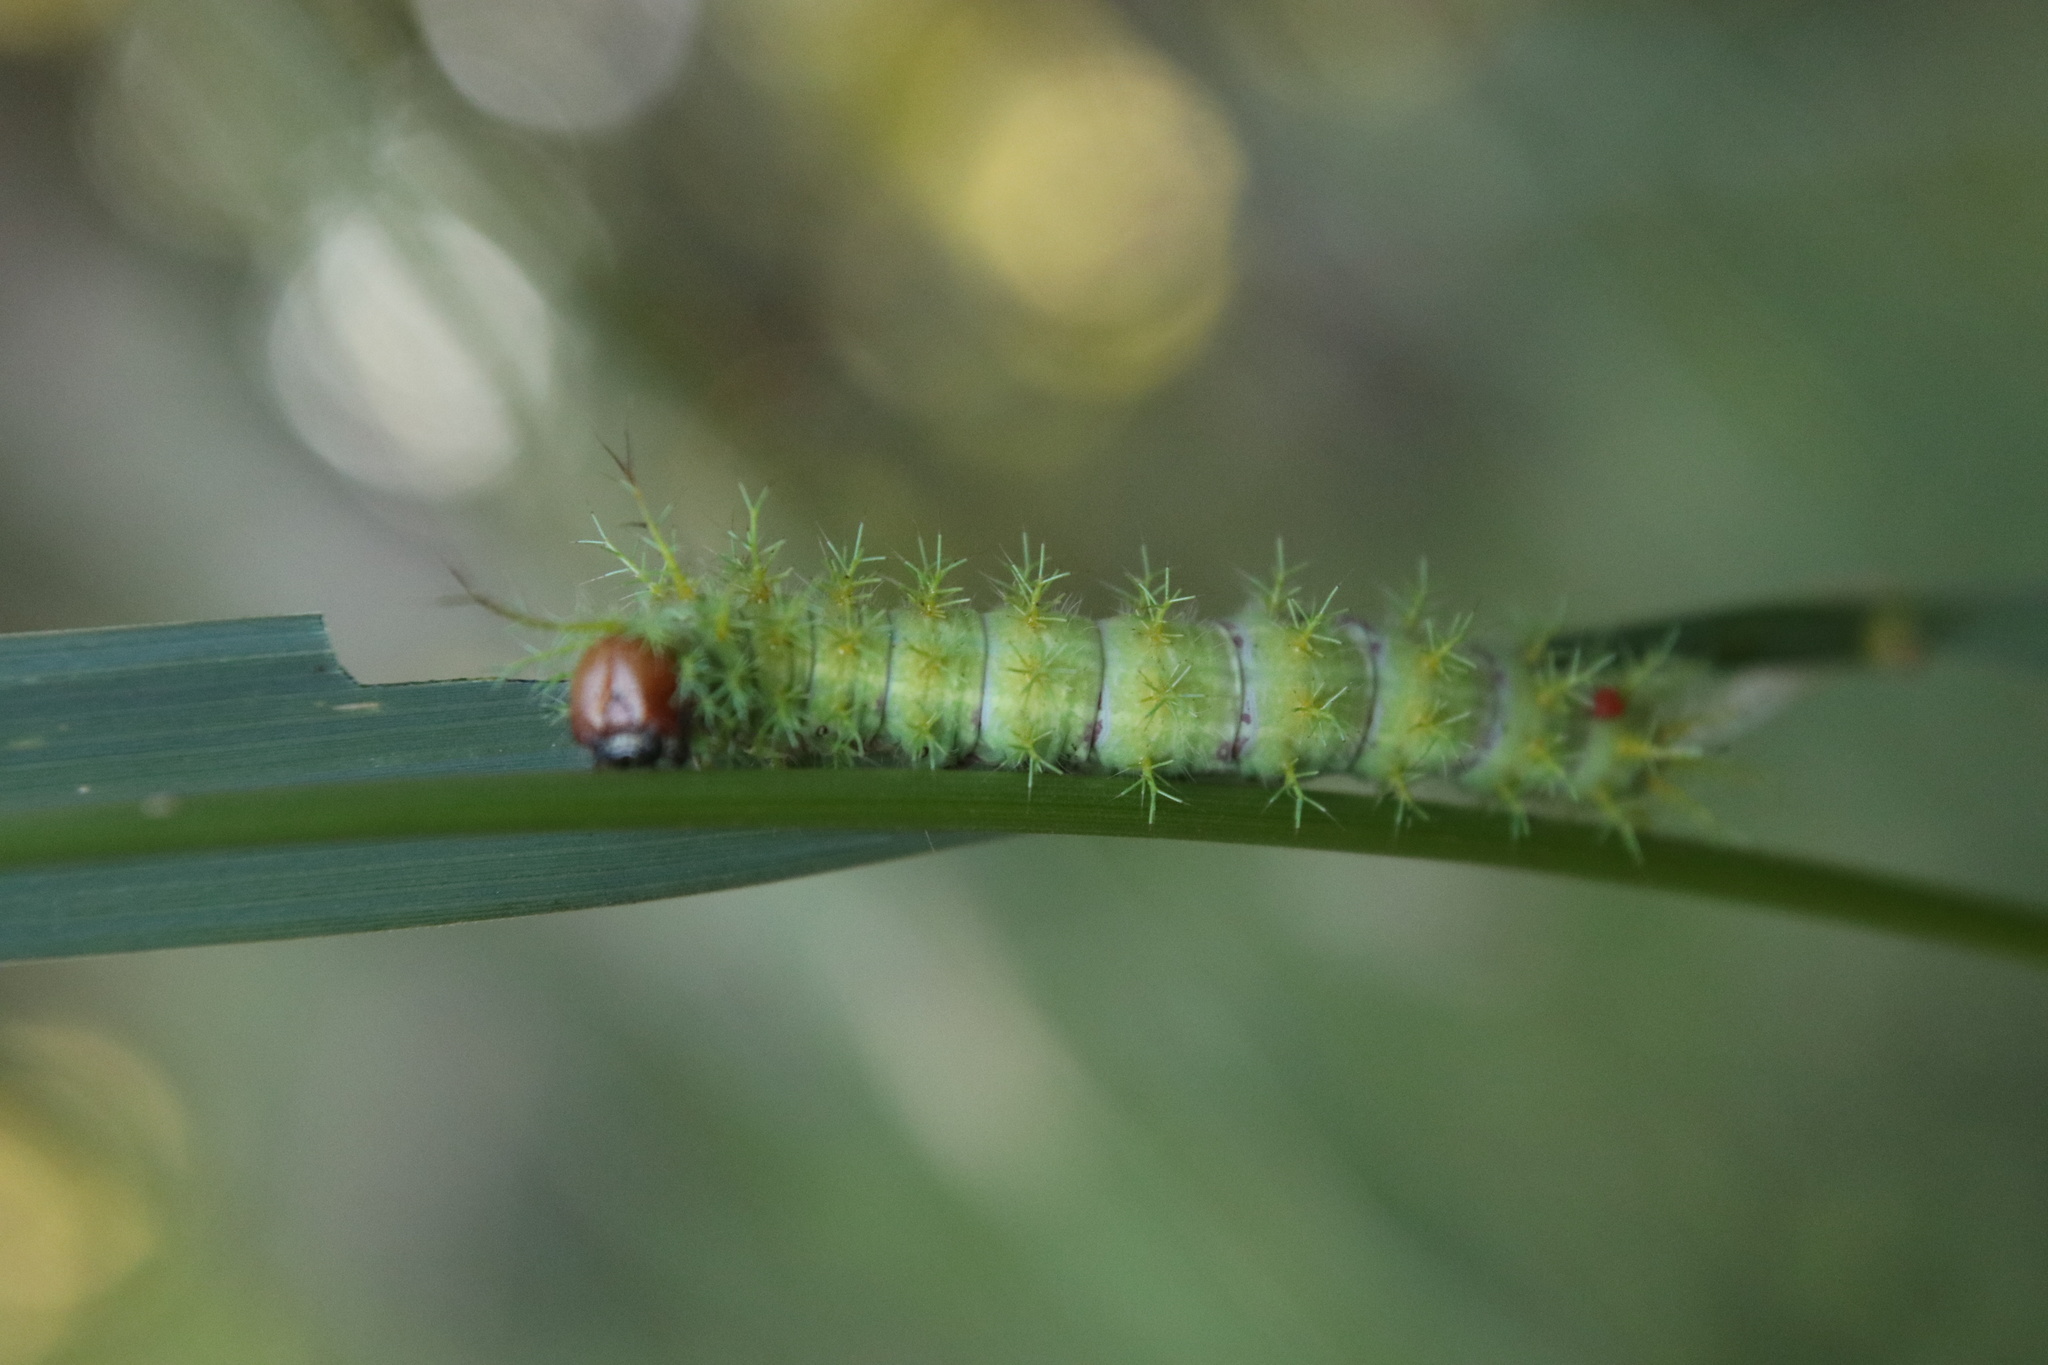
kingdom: Animalia
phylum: Arthropoda
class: Insecta
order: Lepidoptera
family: Saturniidae
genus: Ormiscodes
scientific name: Ormiscodes amphinome
